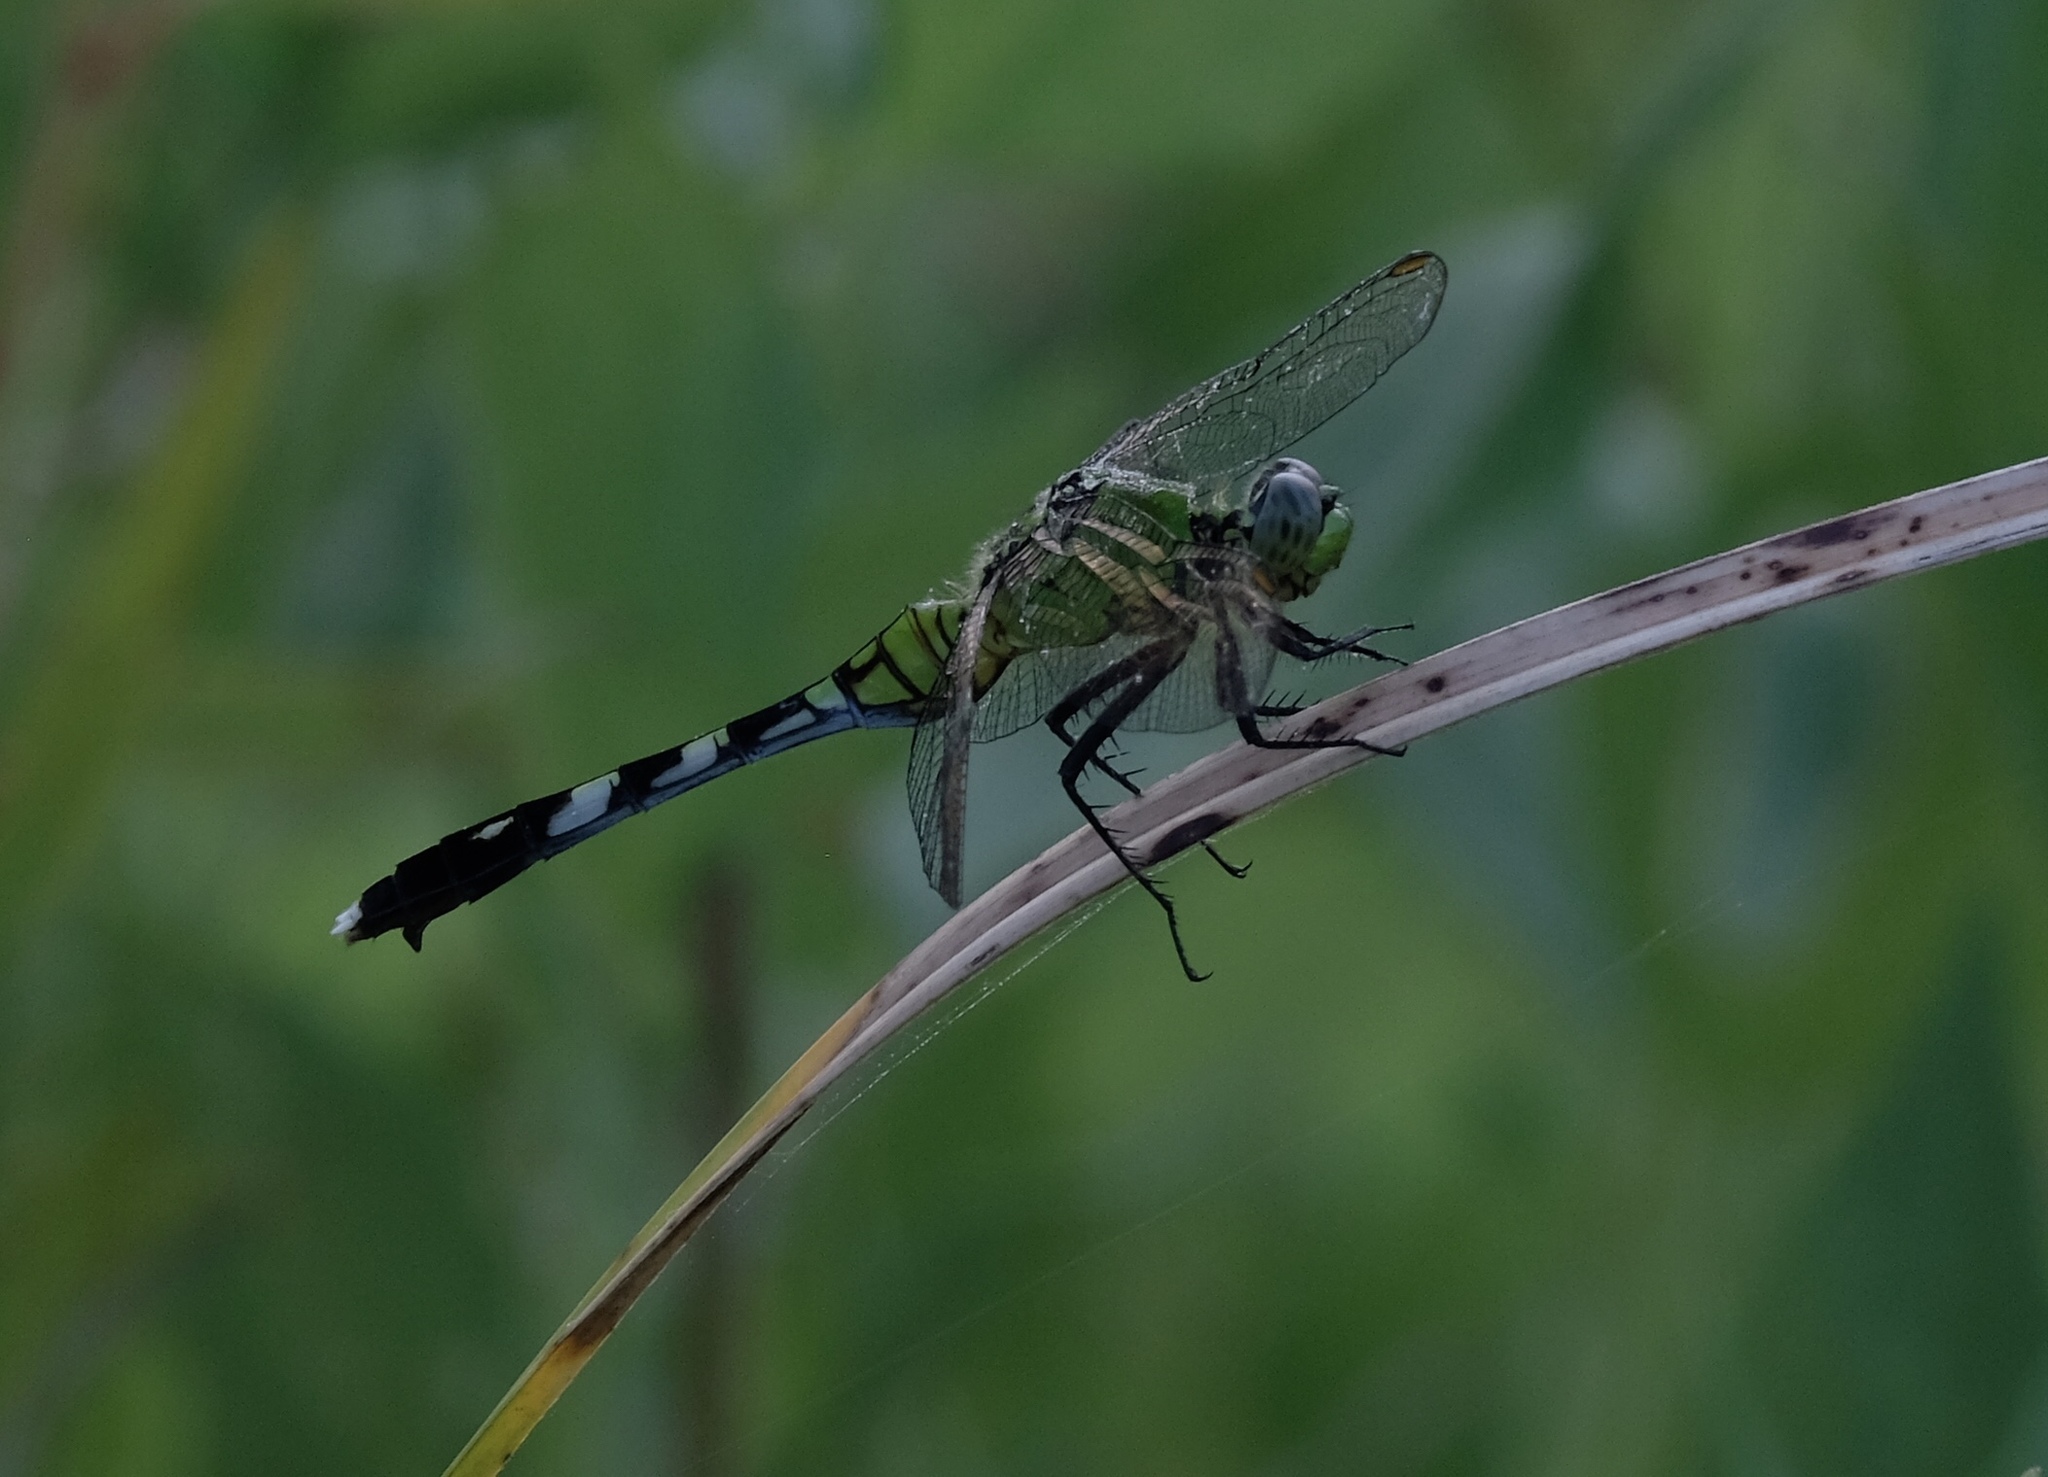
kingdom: Animalia
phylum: Arthropoda
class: Insecta
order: Odonata
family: Libellulidae
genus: Erythemis
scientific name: Erythemis simplicicollis
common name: Eastern pondhawk
